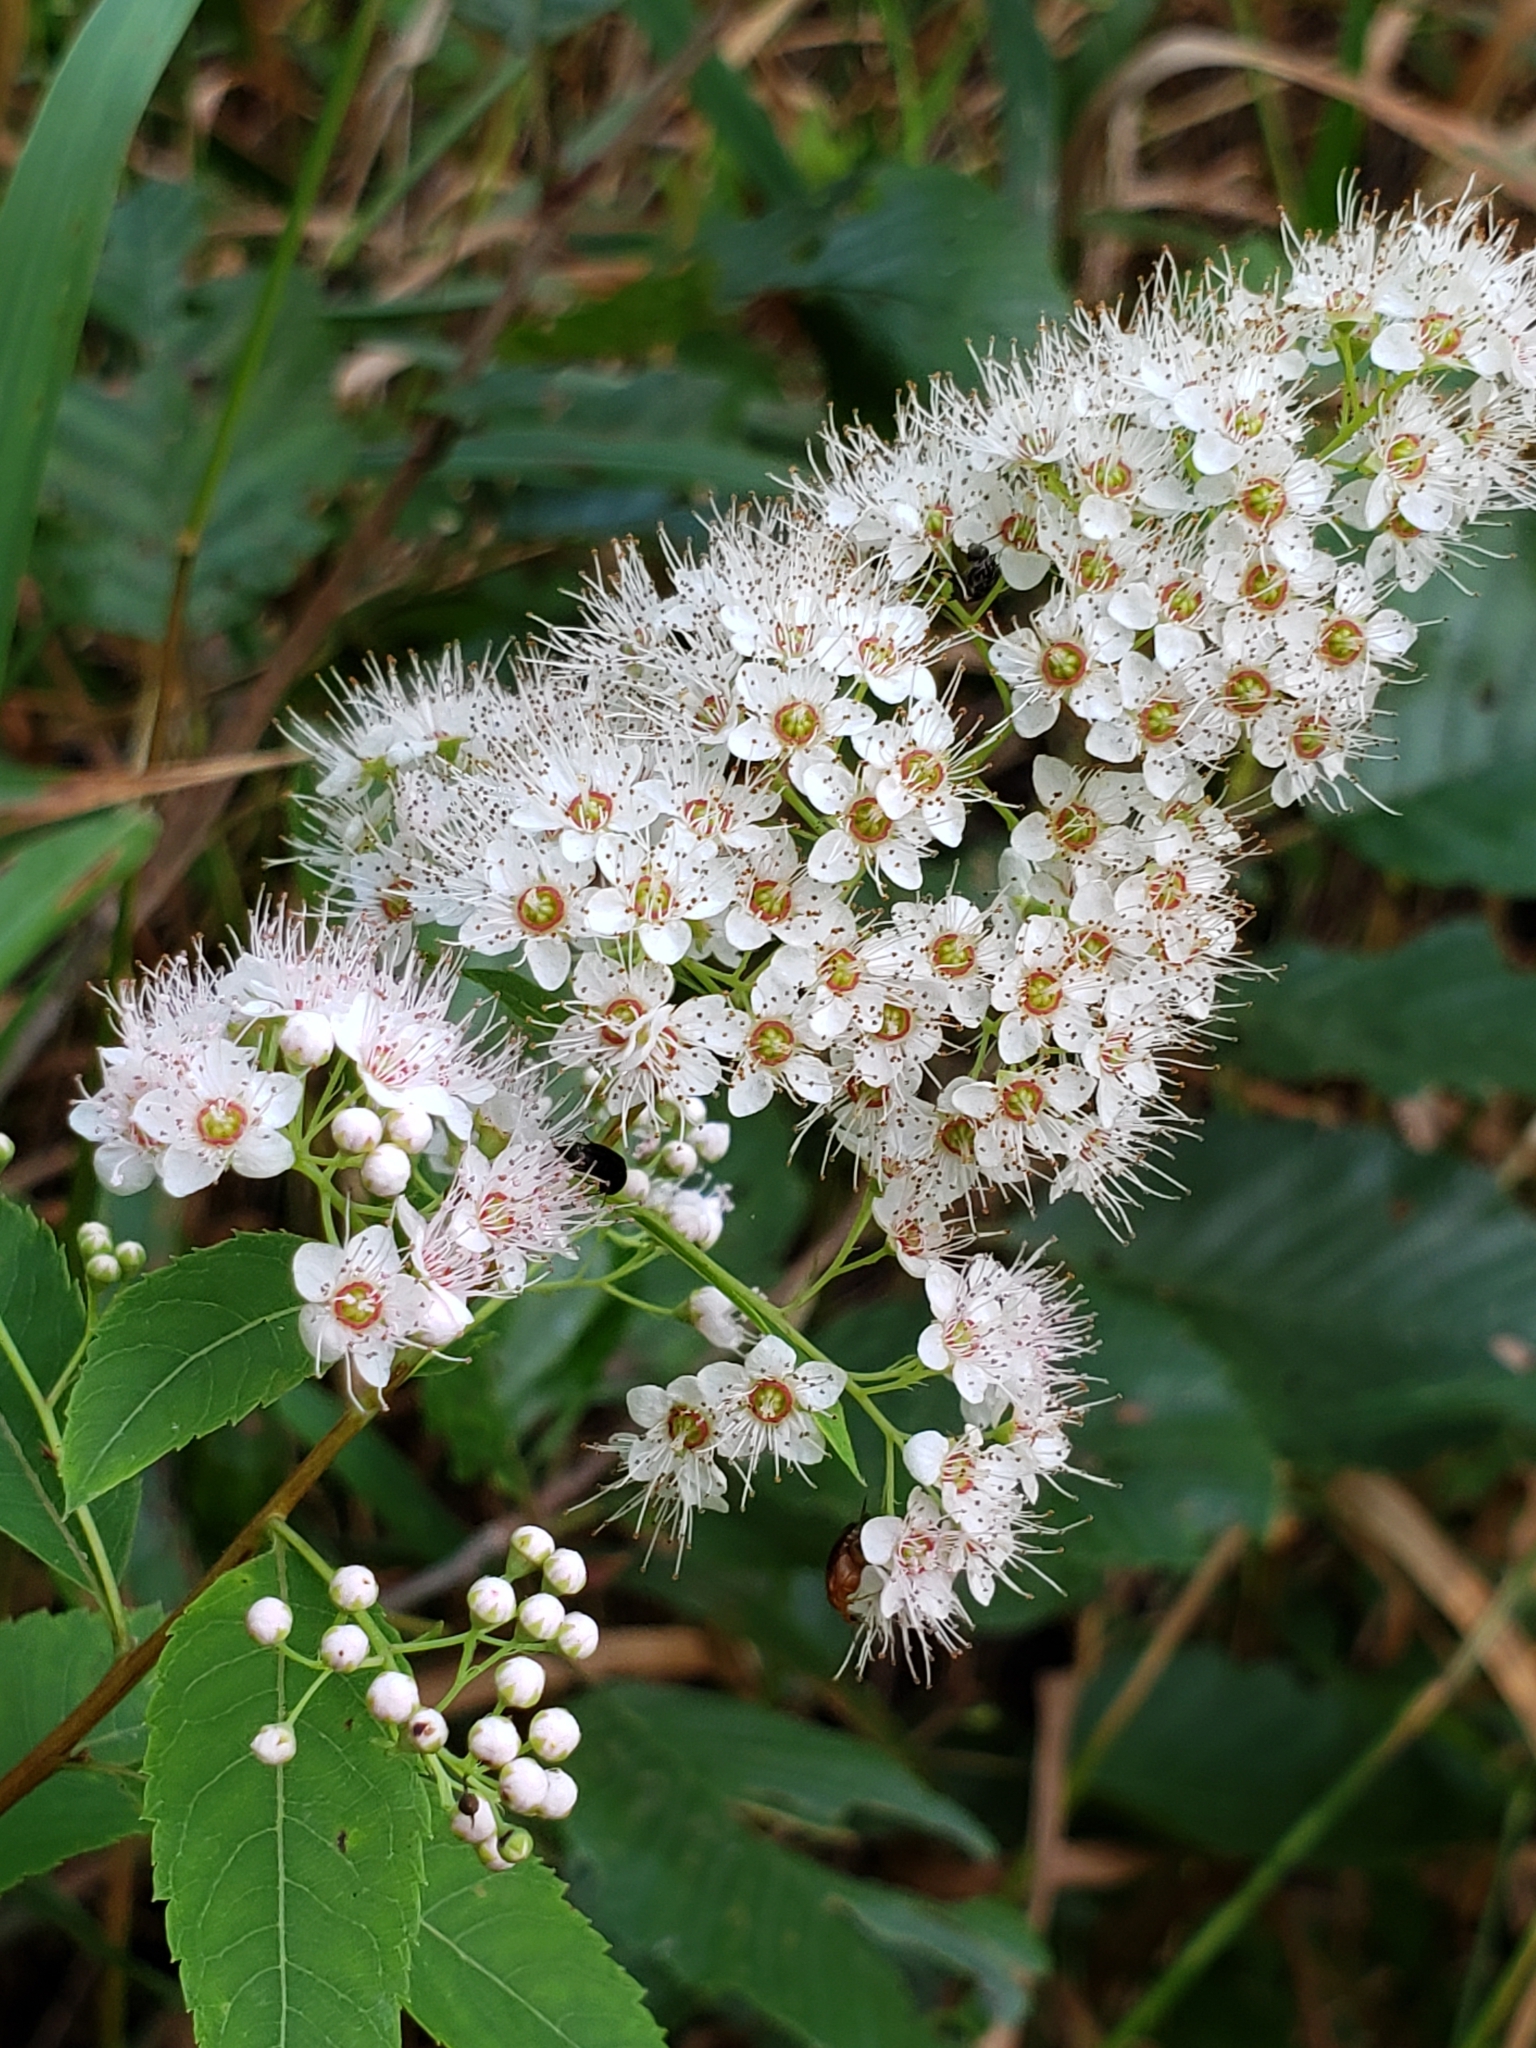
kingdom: Plantae
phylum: Tracheophyta
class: Magnoliopsida
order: Rosales
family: Rosaceae
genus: Spiraea
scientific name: Spiraea alba
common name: Pale bridewort
